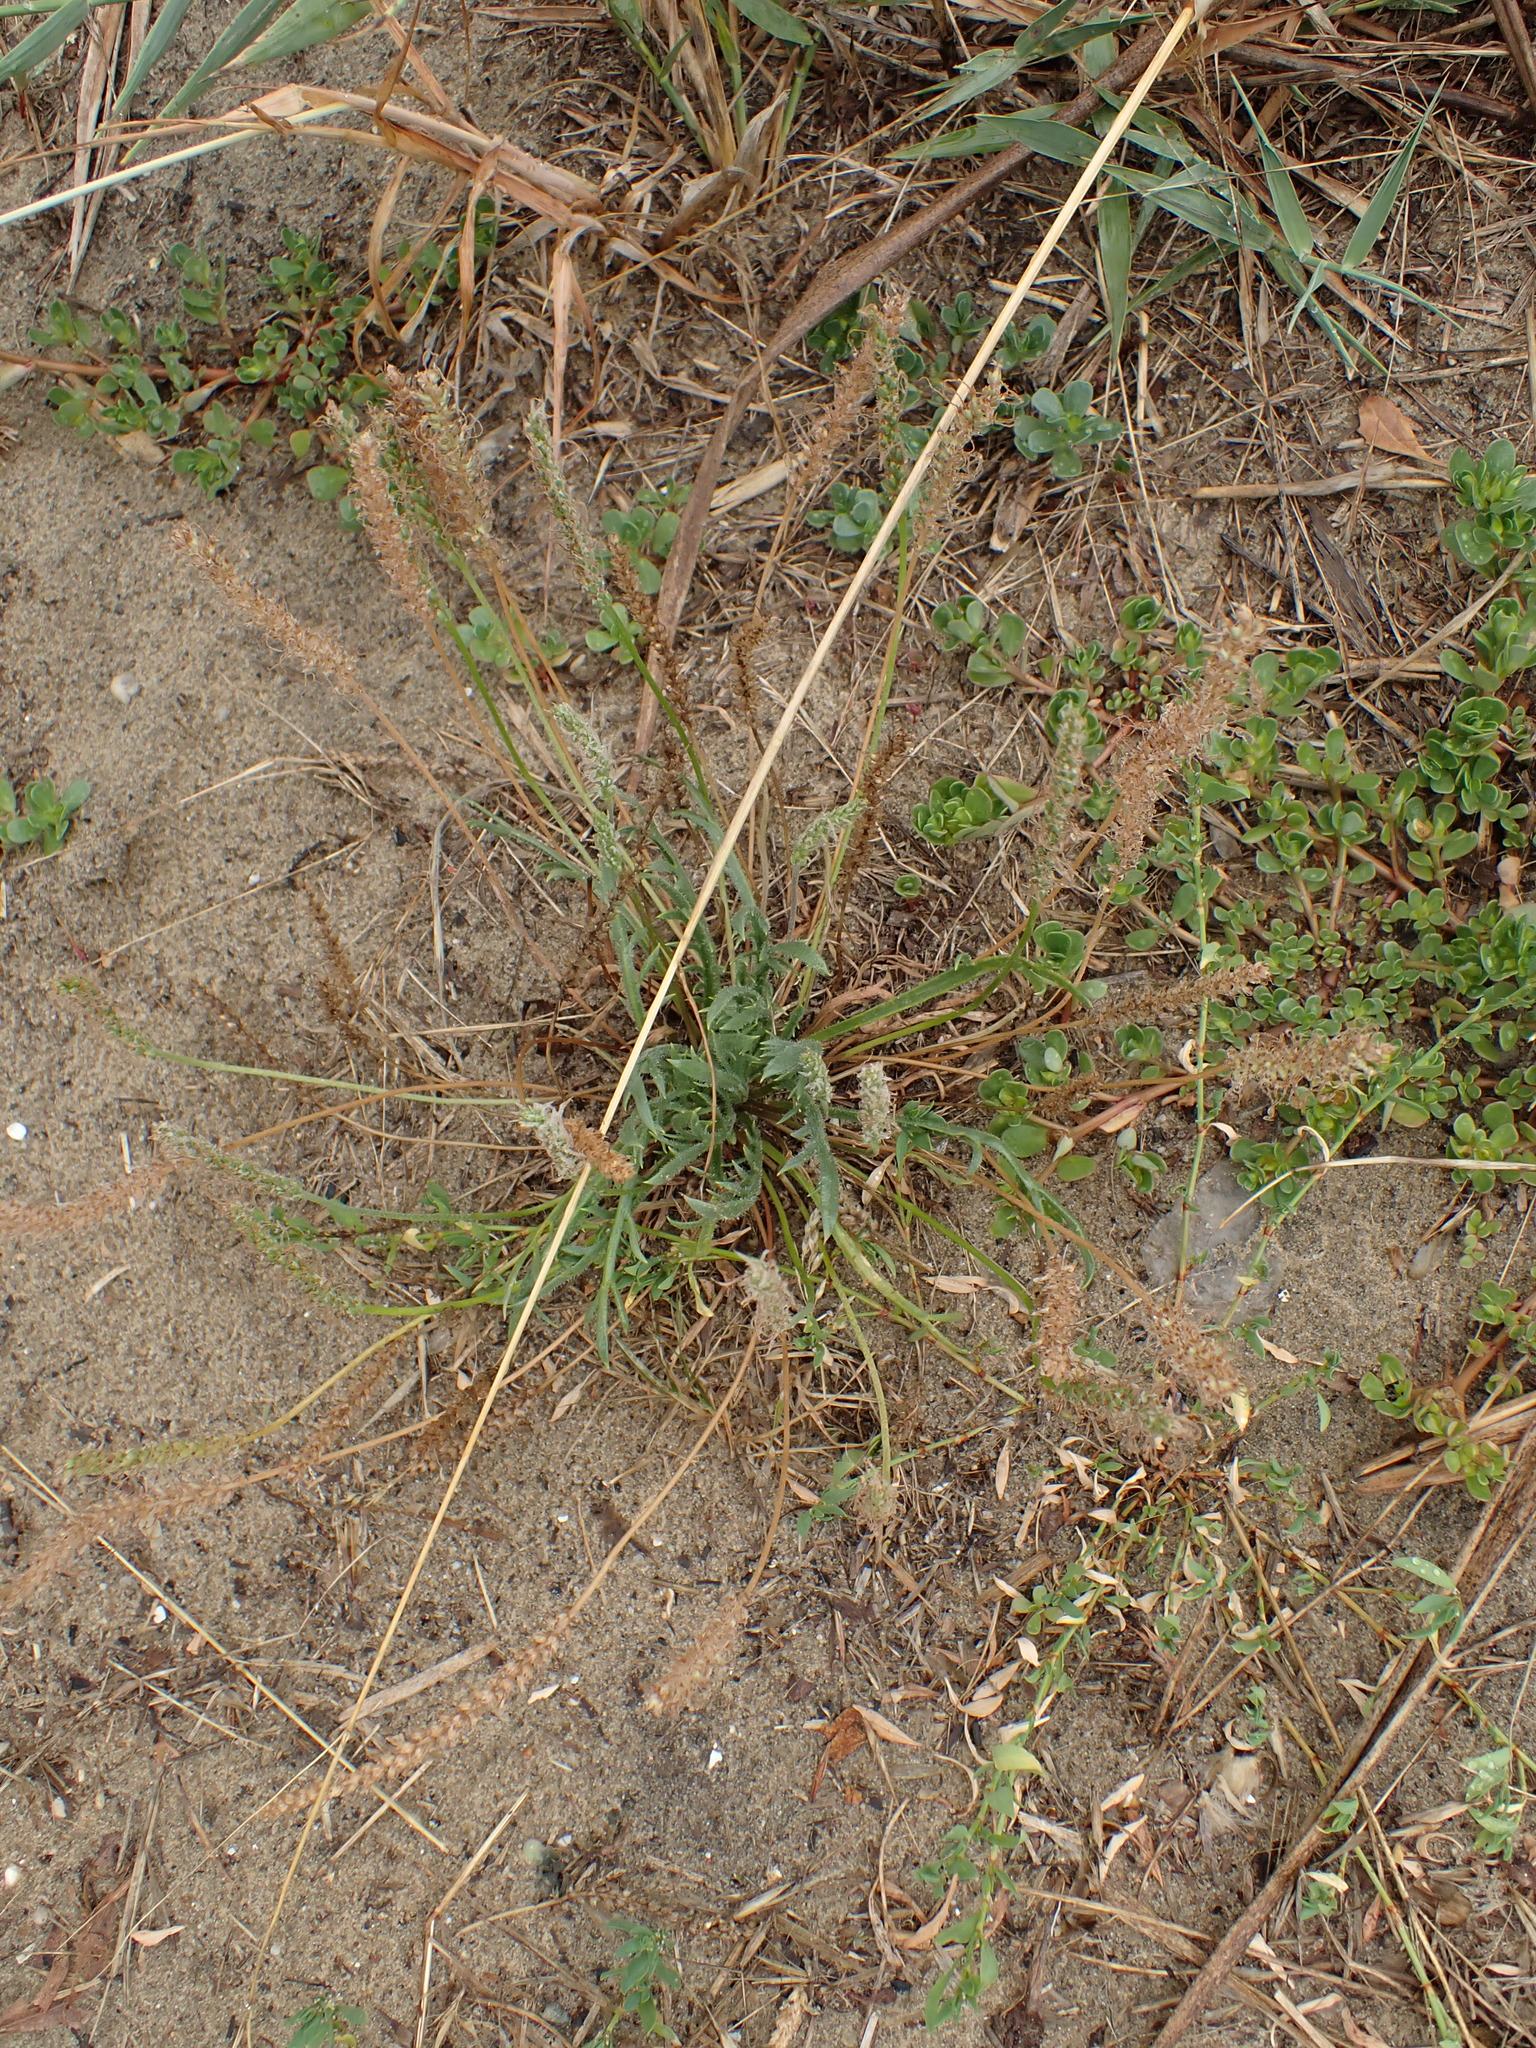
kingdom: Plantae
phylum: Tracheophyta
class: Magnoliopsida
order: Lamiales
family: Plantaginaceae
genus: Plantago
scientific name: Plantago coronopus
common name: Buck's-horn plantain
